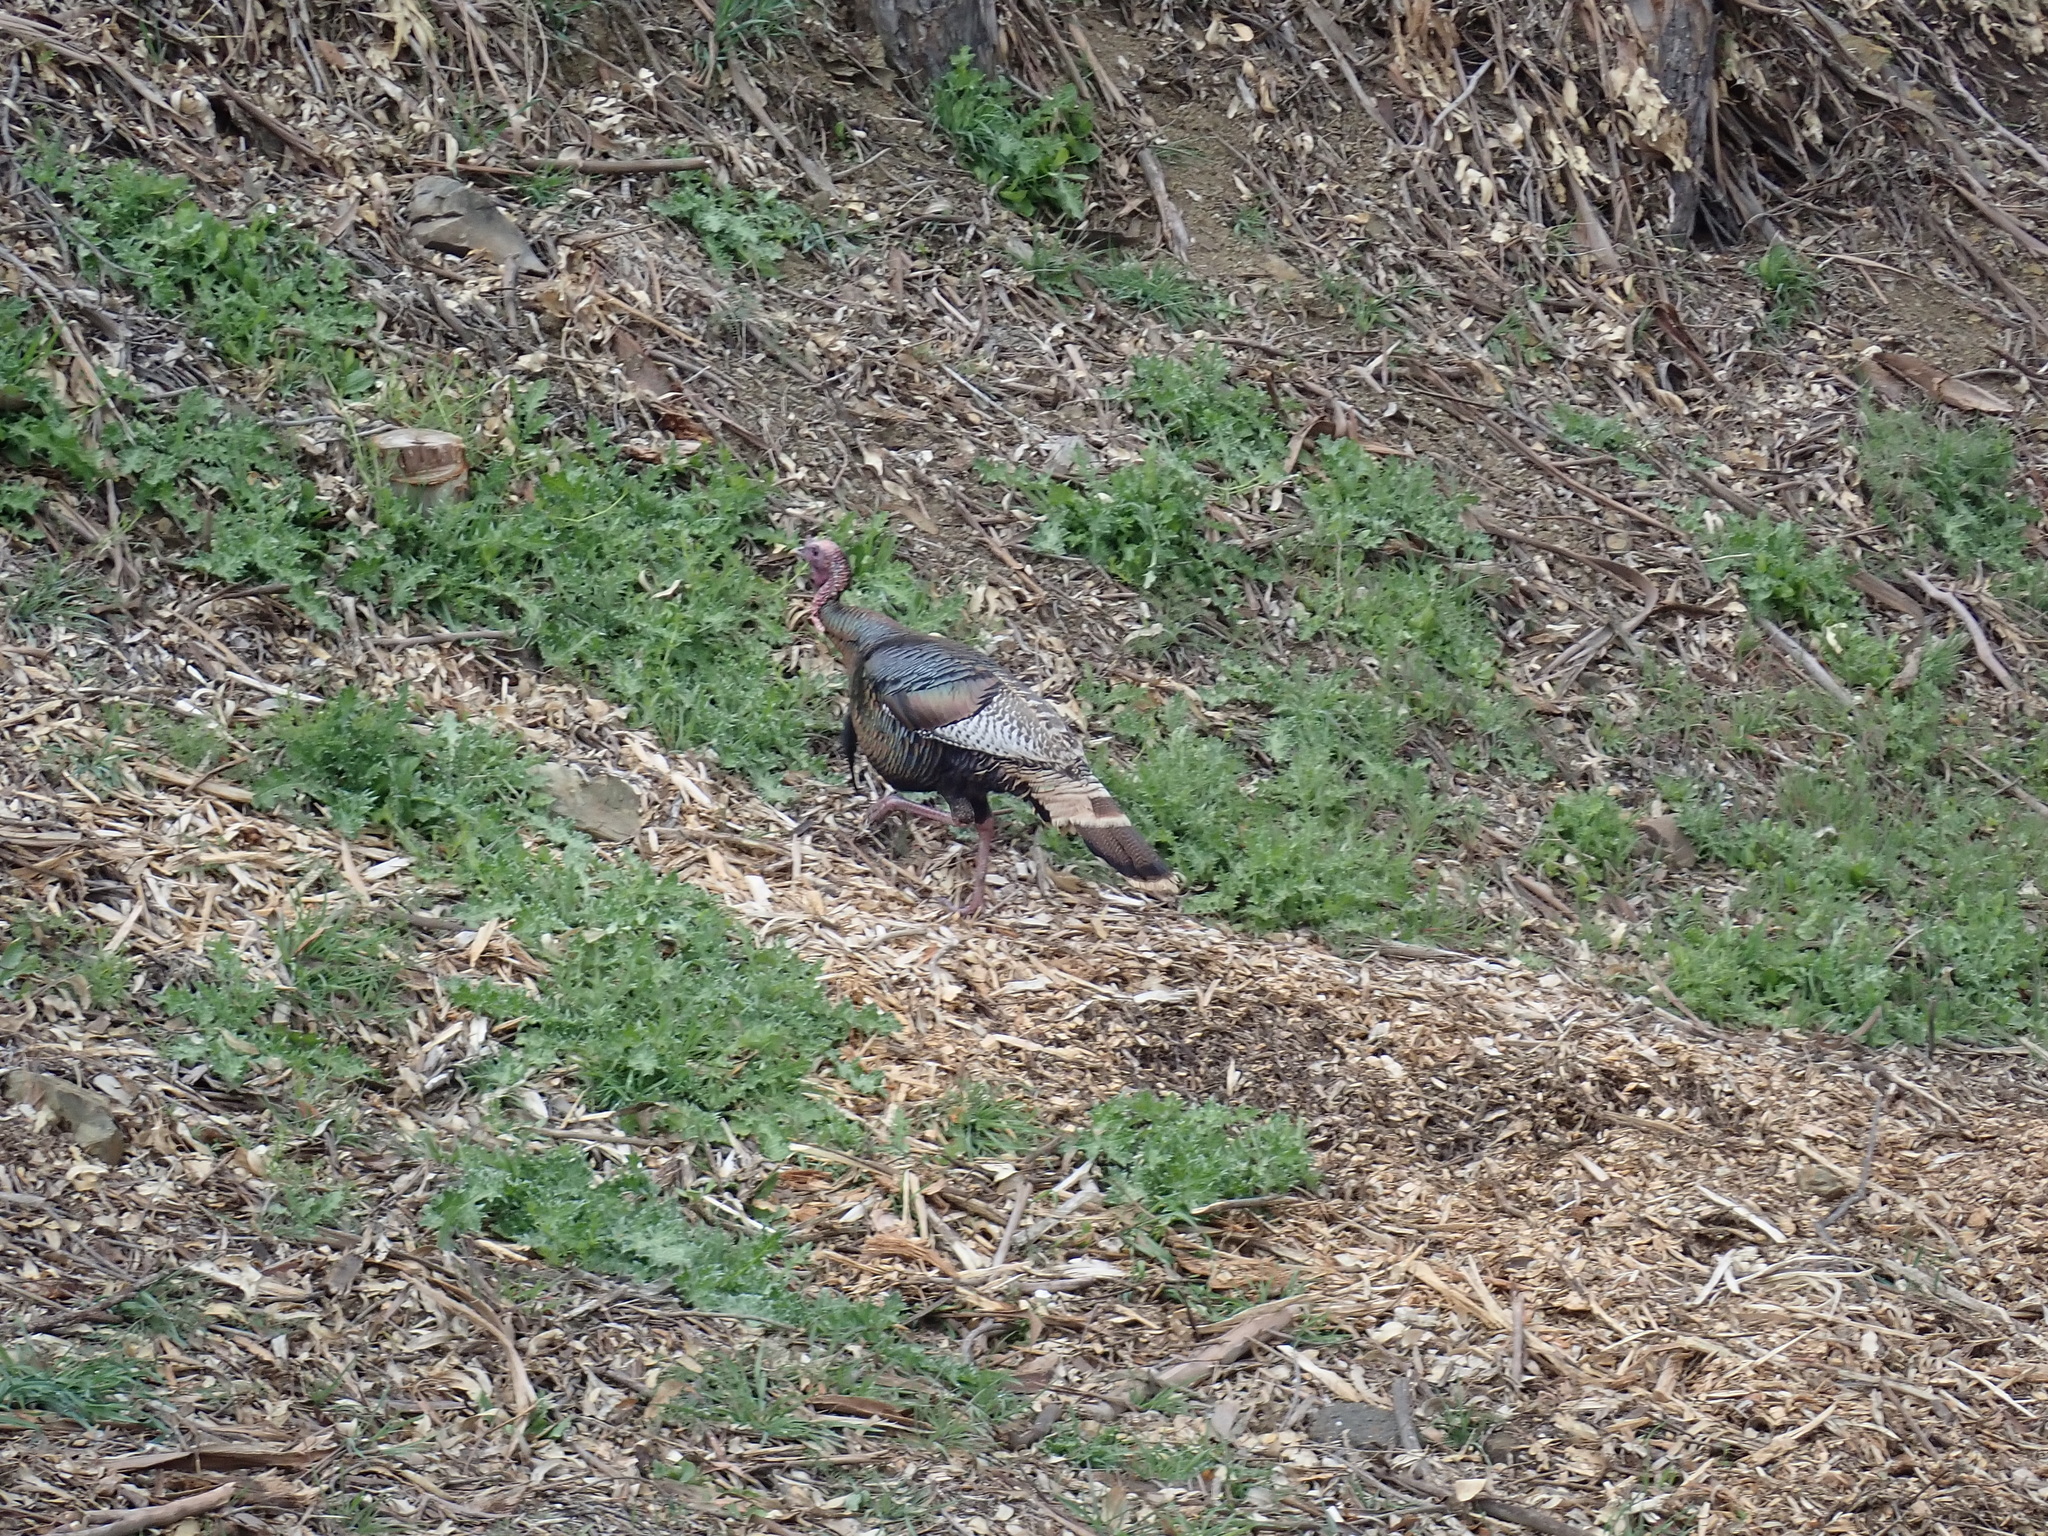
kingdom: Animalia
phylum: Chordata
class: Aves
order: Galliformes
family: Phasianidae
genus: Meleagris
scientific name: Meleagris gallopavo
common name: Wild turkey
